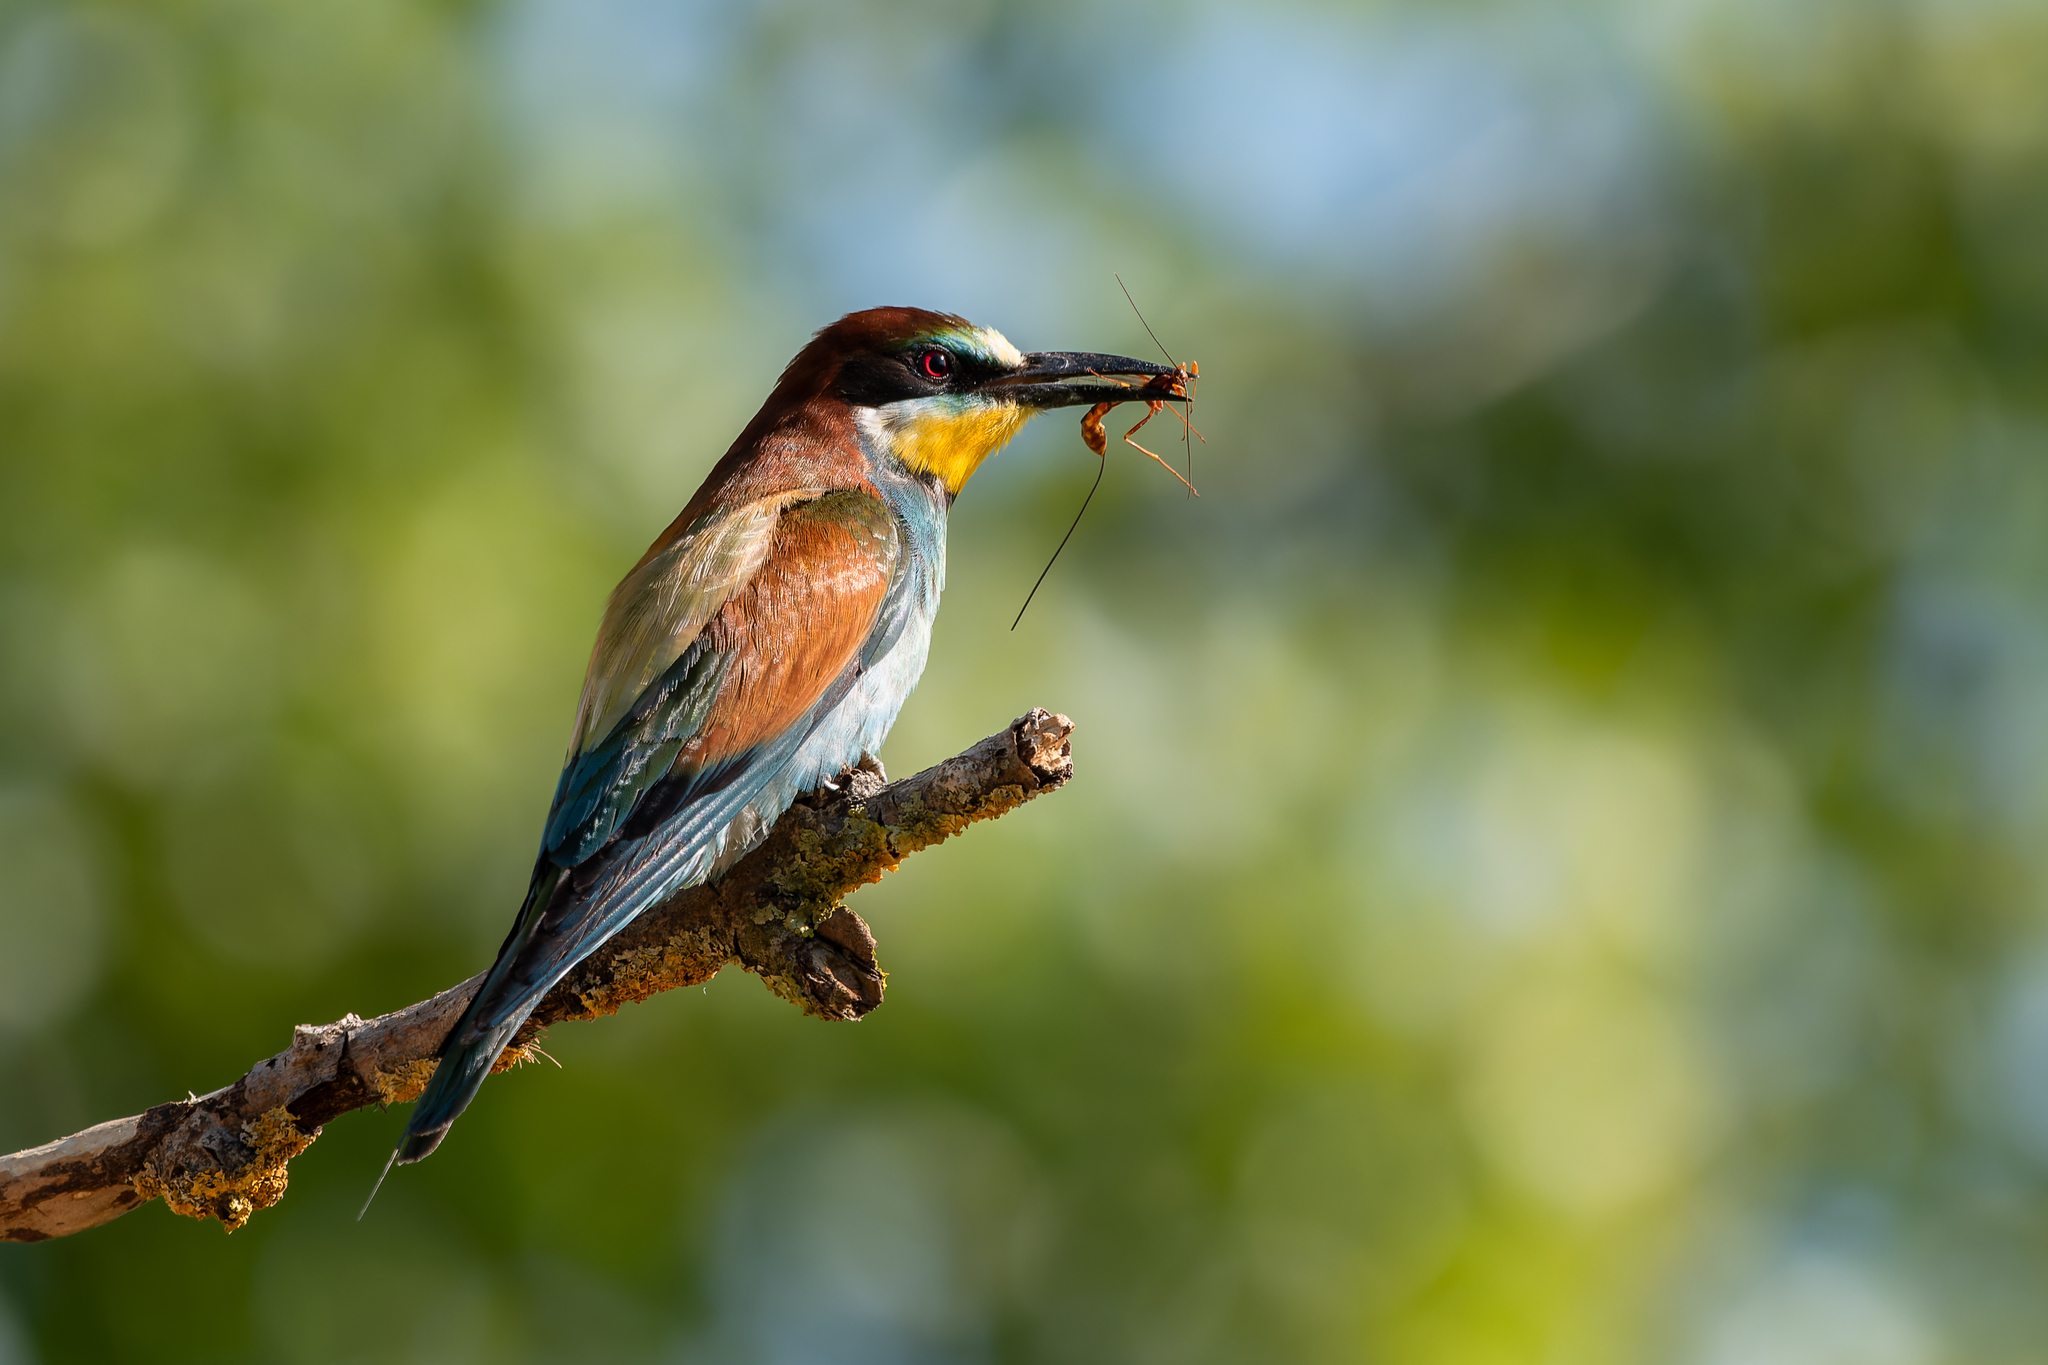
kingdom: Animalia
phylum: Chordata
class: Aves
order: Coraciiformes
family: Meropidae
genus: Merops
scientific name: Merops apiaster
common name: European bee-eater
